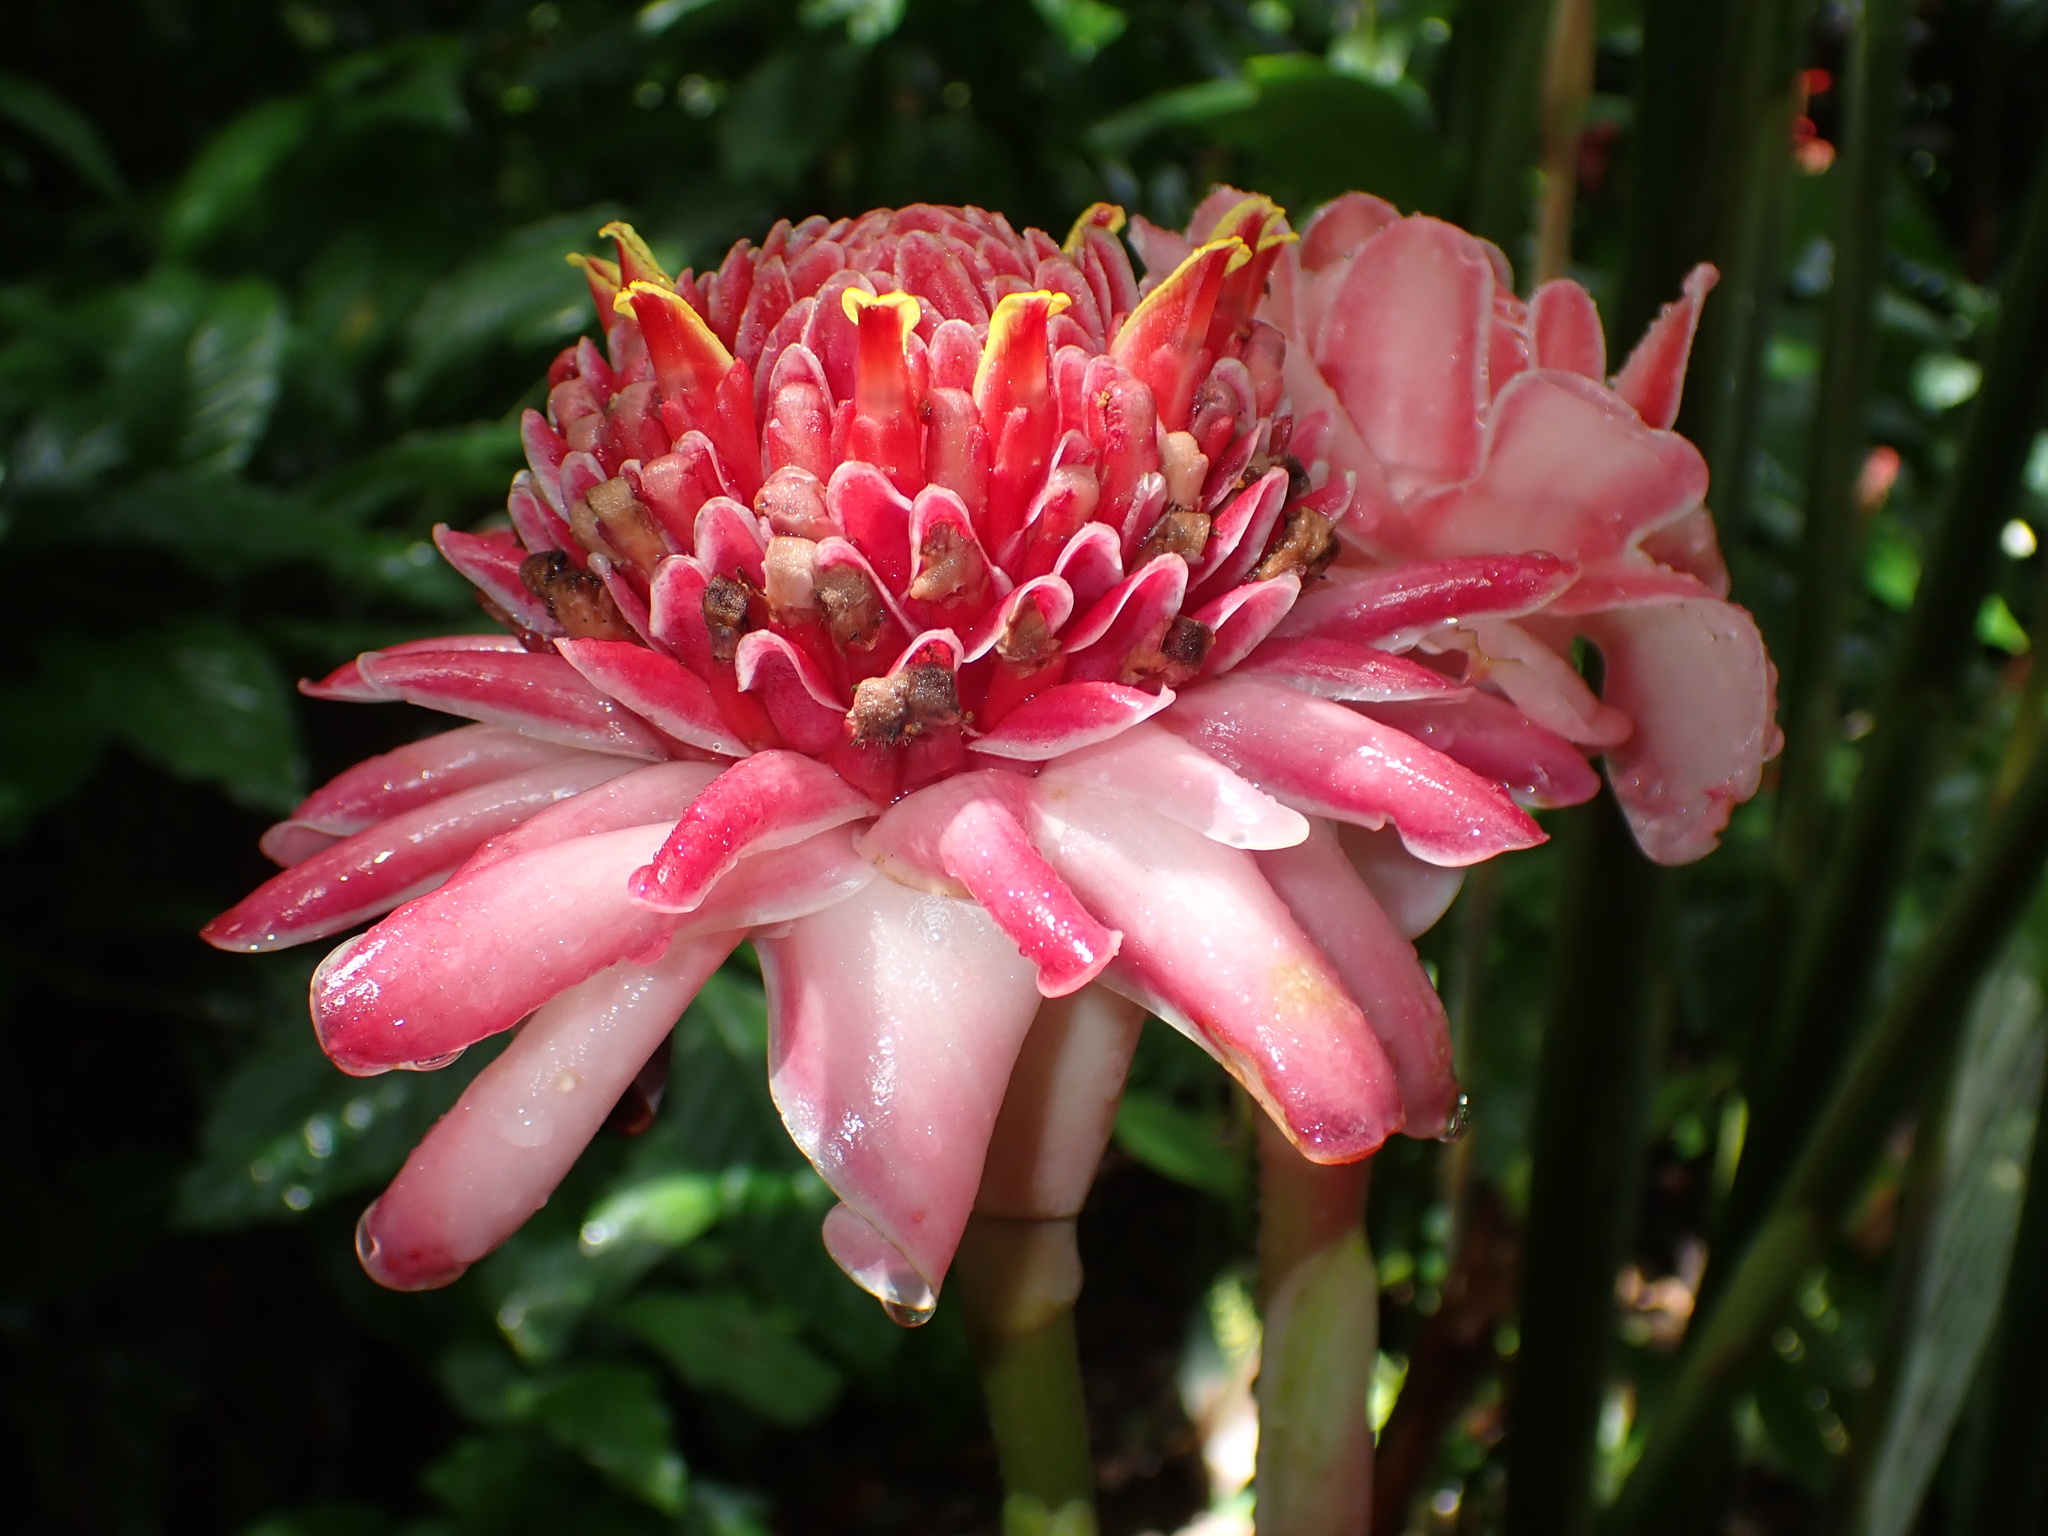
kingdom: Plantae
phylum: Tracheophyta
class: Liliopsida
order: Zingiberales
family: Zingiberaceae
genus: Etlingera
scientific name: Etlingera elatior
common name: Philippine waxflower
